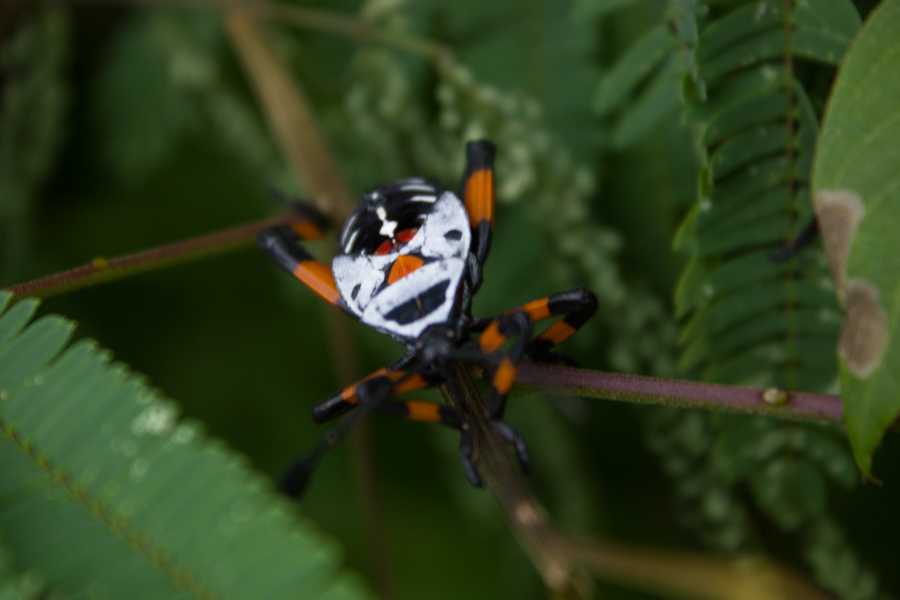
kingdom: Animalia
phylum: Arthropoda
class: Insecta
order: Hemiptera
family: Coreidae
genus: Thasus
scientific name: Thasus
